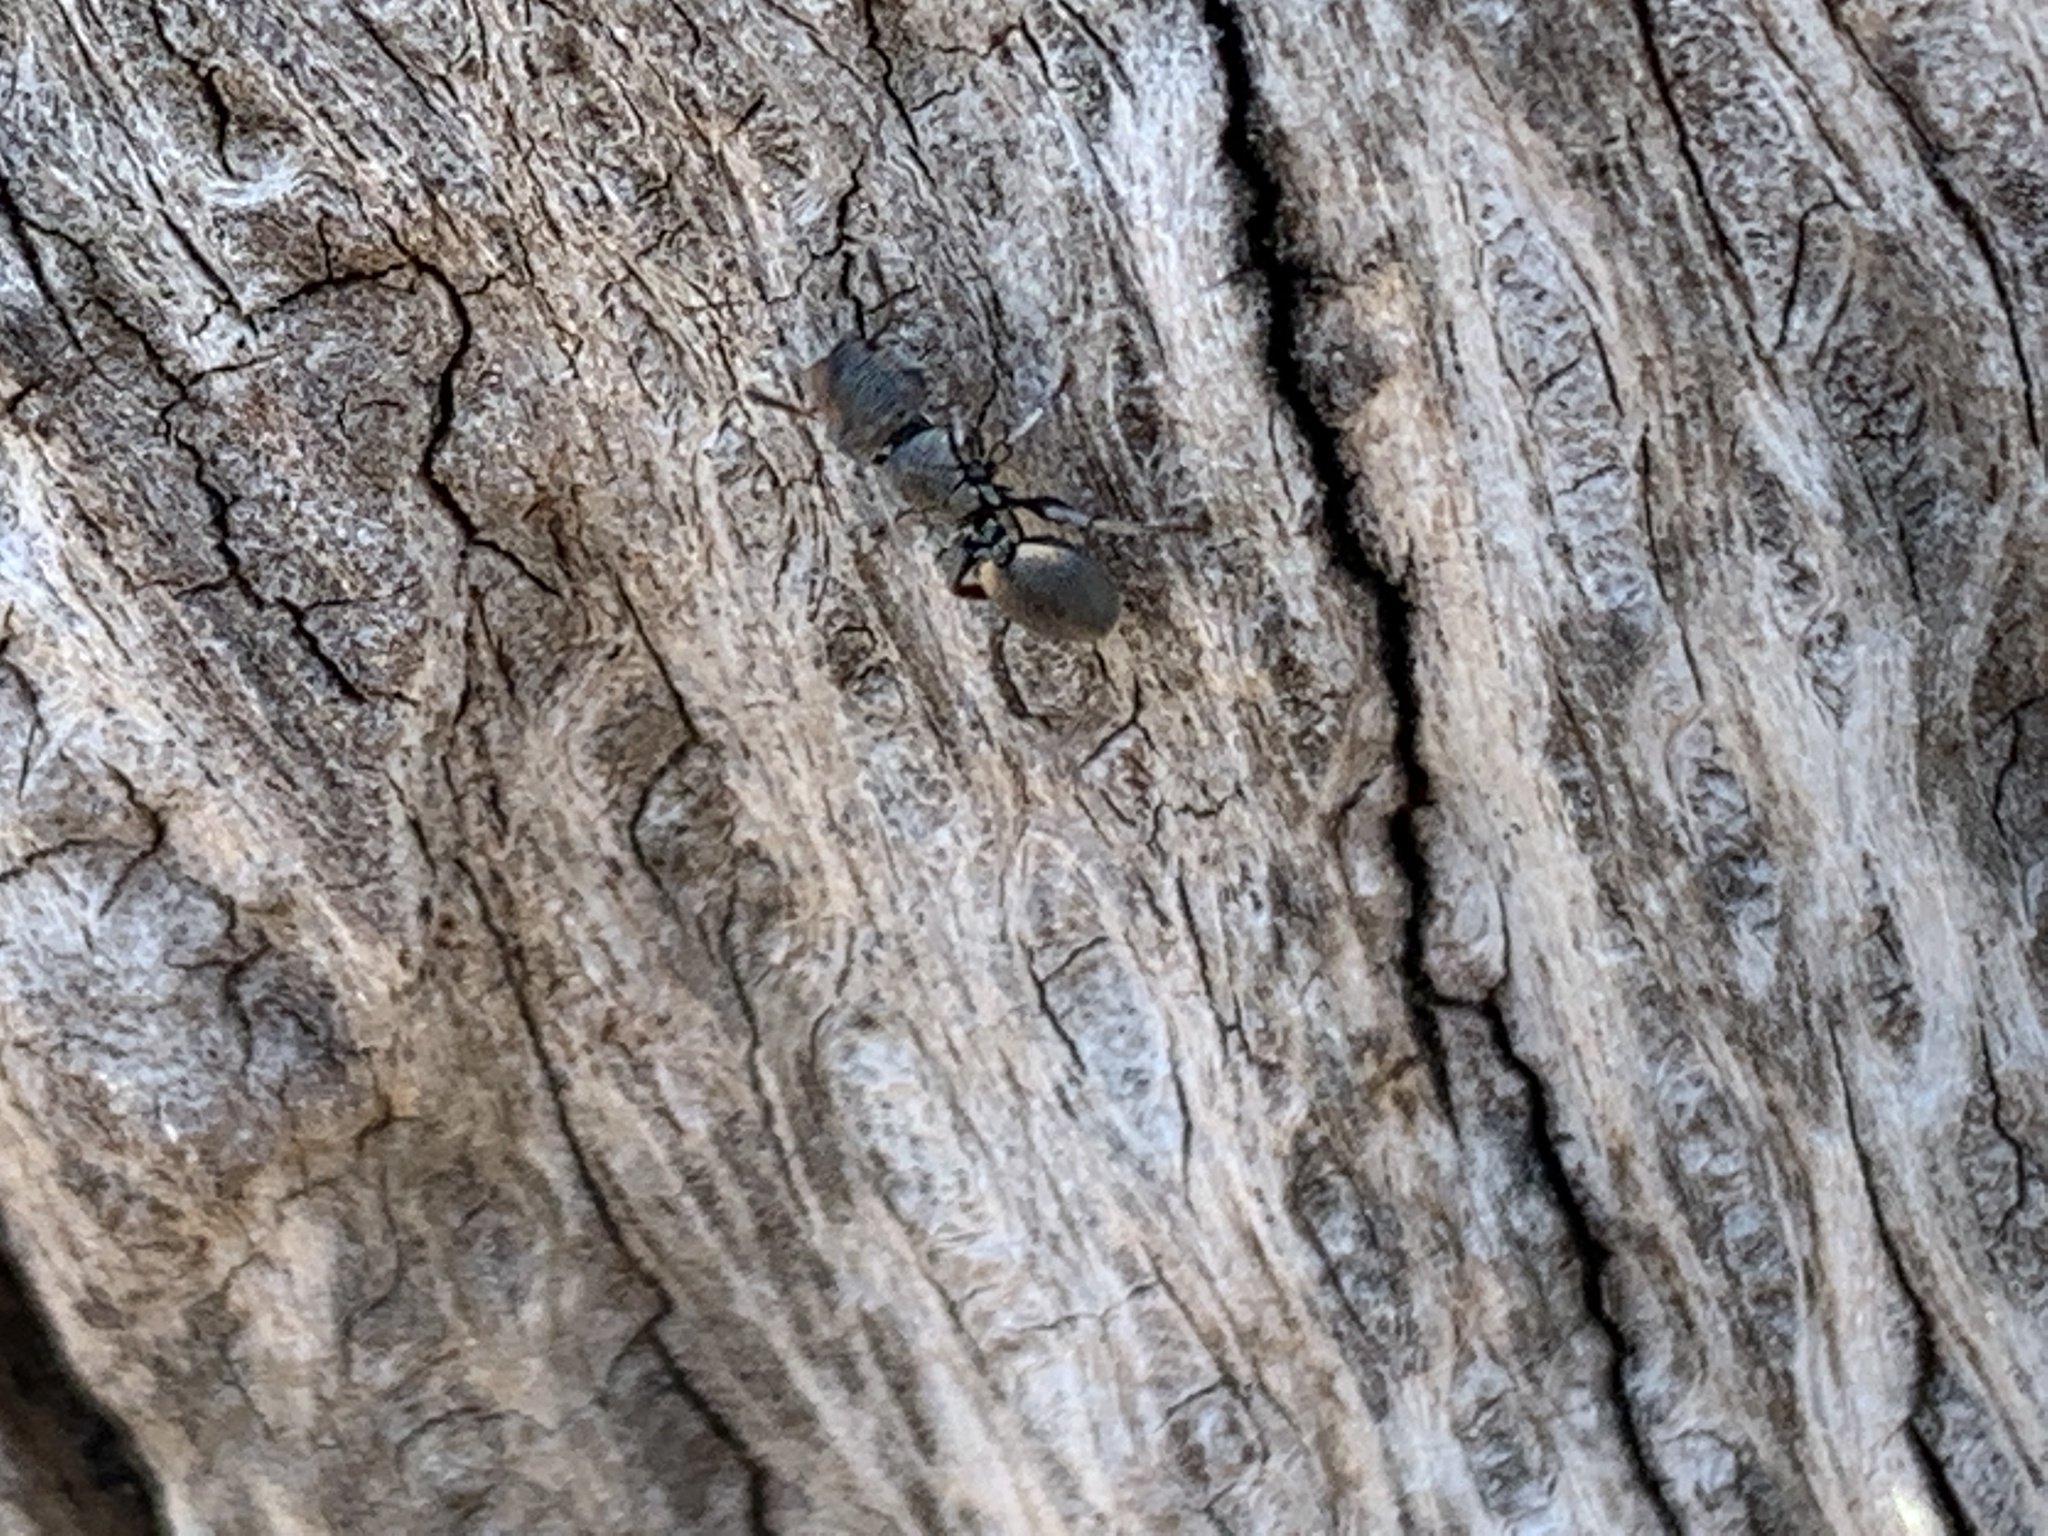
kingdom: Animalia
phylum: Arthropoda
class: Insecta
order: Hymenoptera
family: Formicidae
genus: Cephalotes
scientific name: Cephalotes texanus
